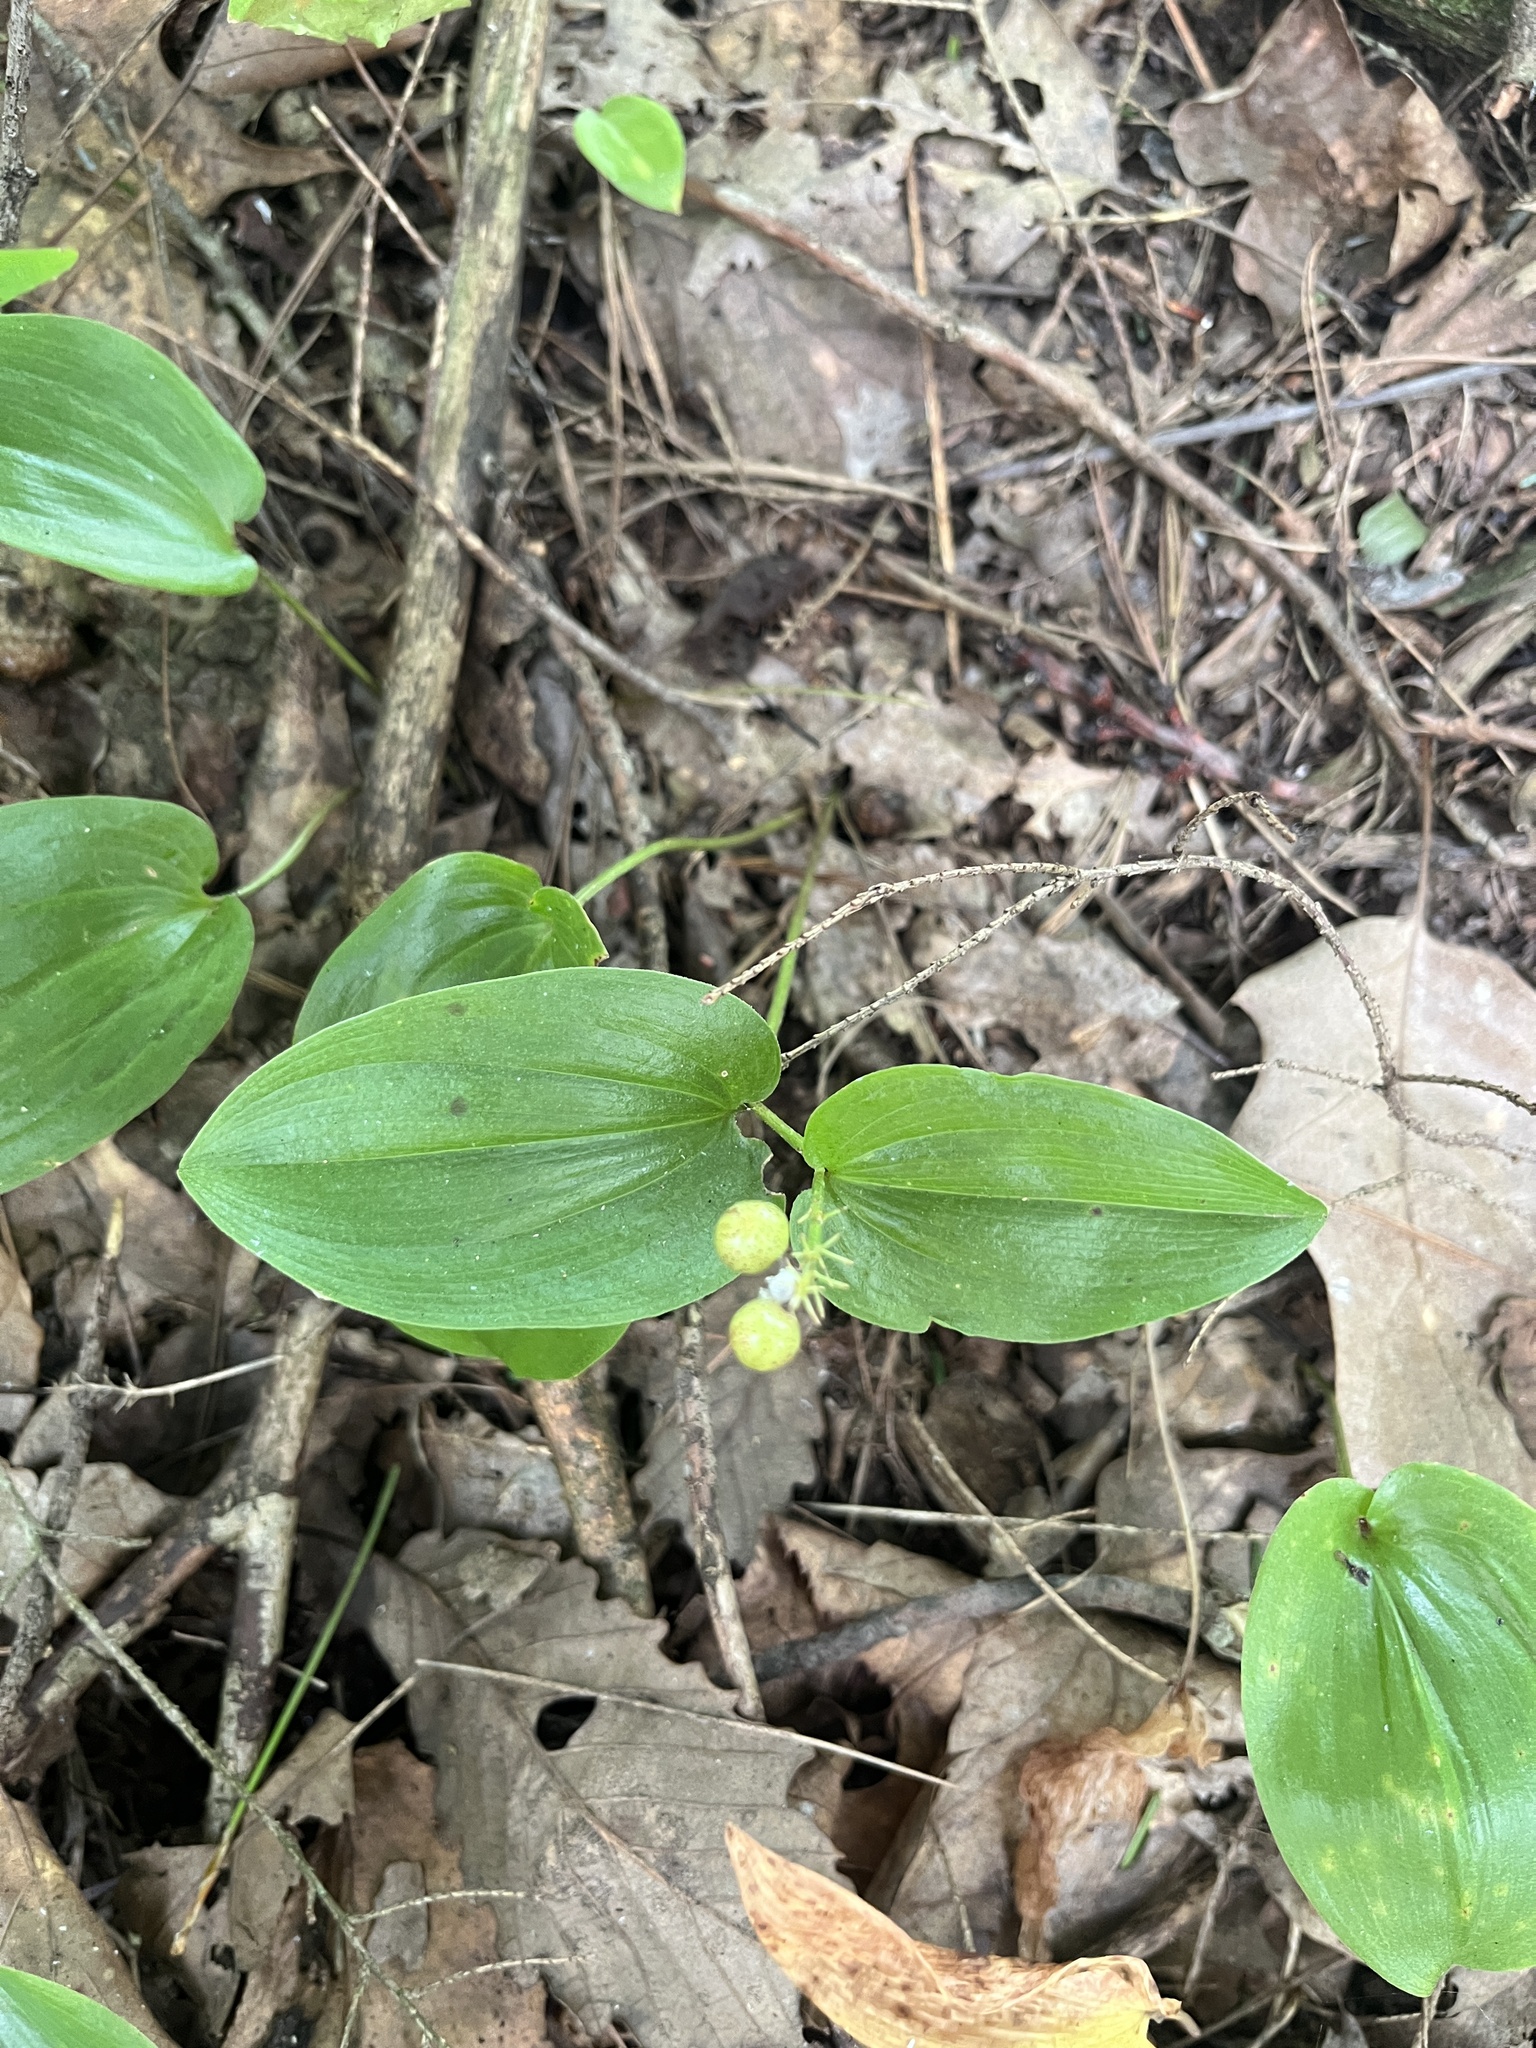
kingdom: Plantae
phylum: Tracheophyta
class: Liliopsida
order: Asparagales
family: Asparagaceae
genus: Maianthemum
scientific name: Maianthemum canadense
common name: False lily-of-the-valley
